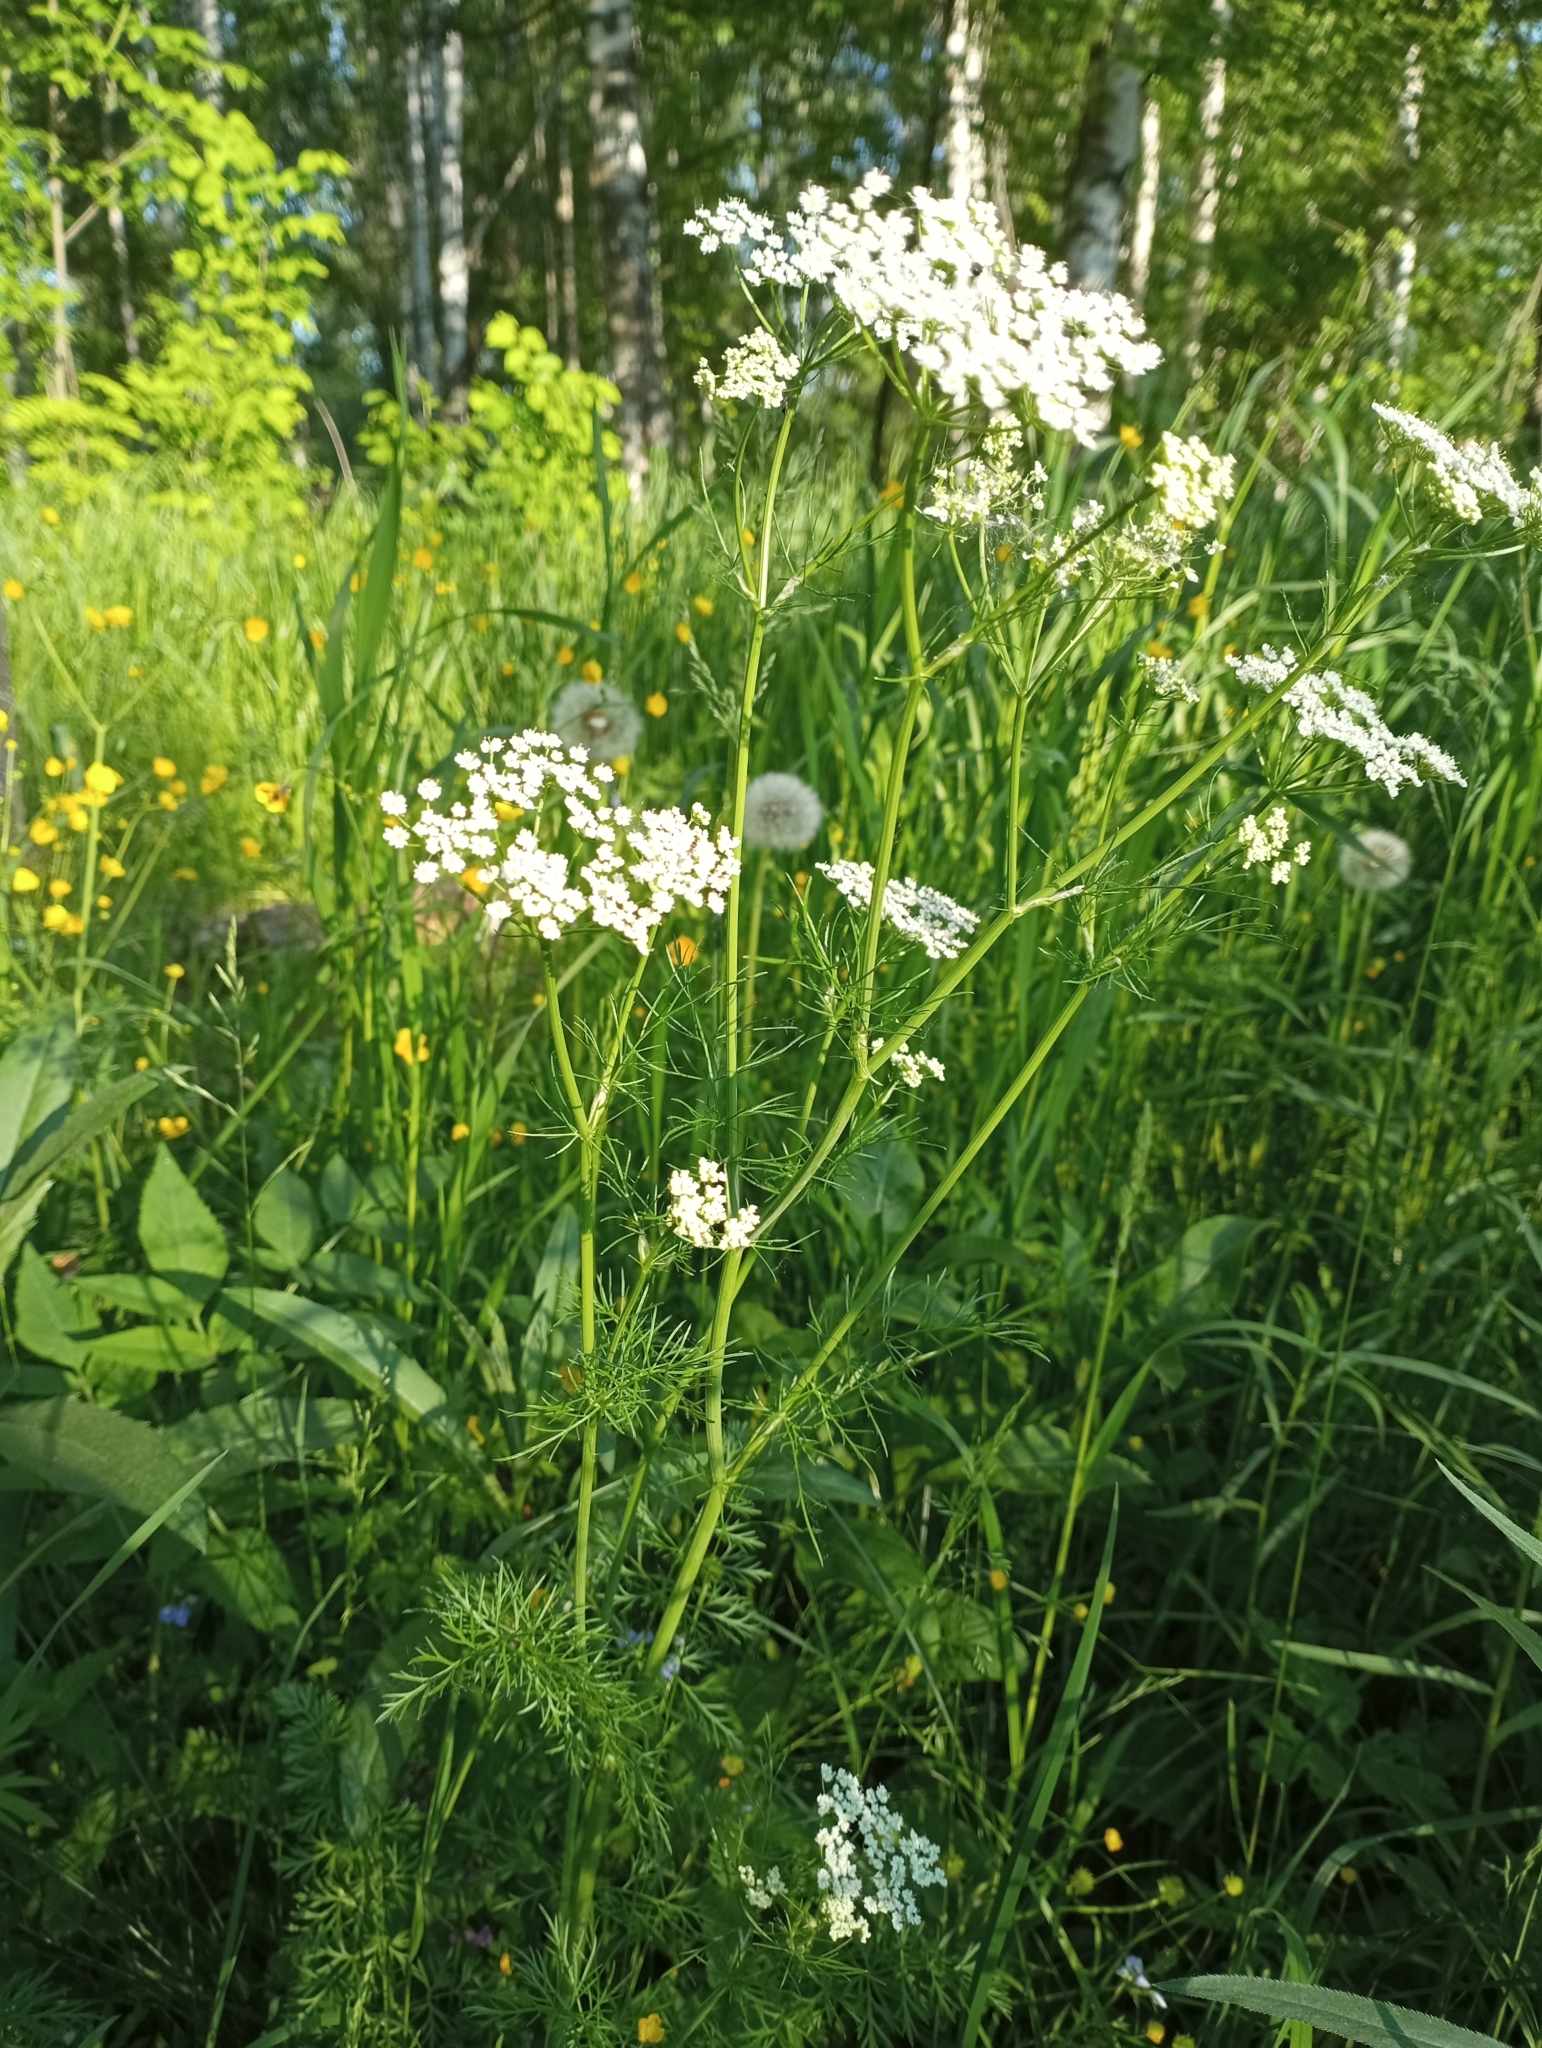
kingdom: Plantae
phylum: Tracheophyta
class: Magnoliopsida
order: Apiales
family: Apiaceae
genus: Carum
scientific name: Carum carvi
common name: Caraway
